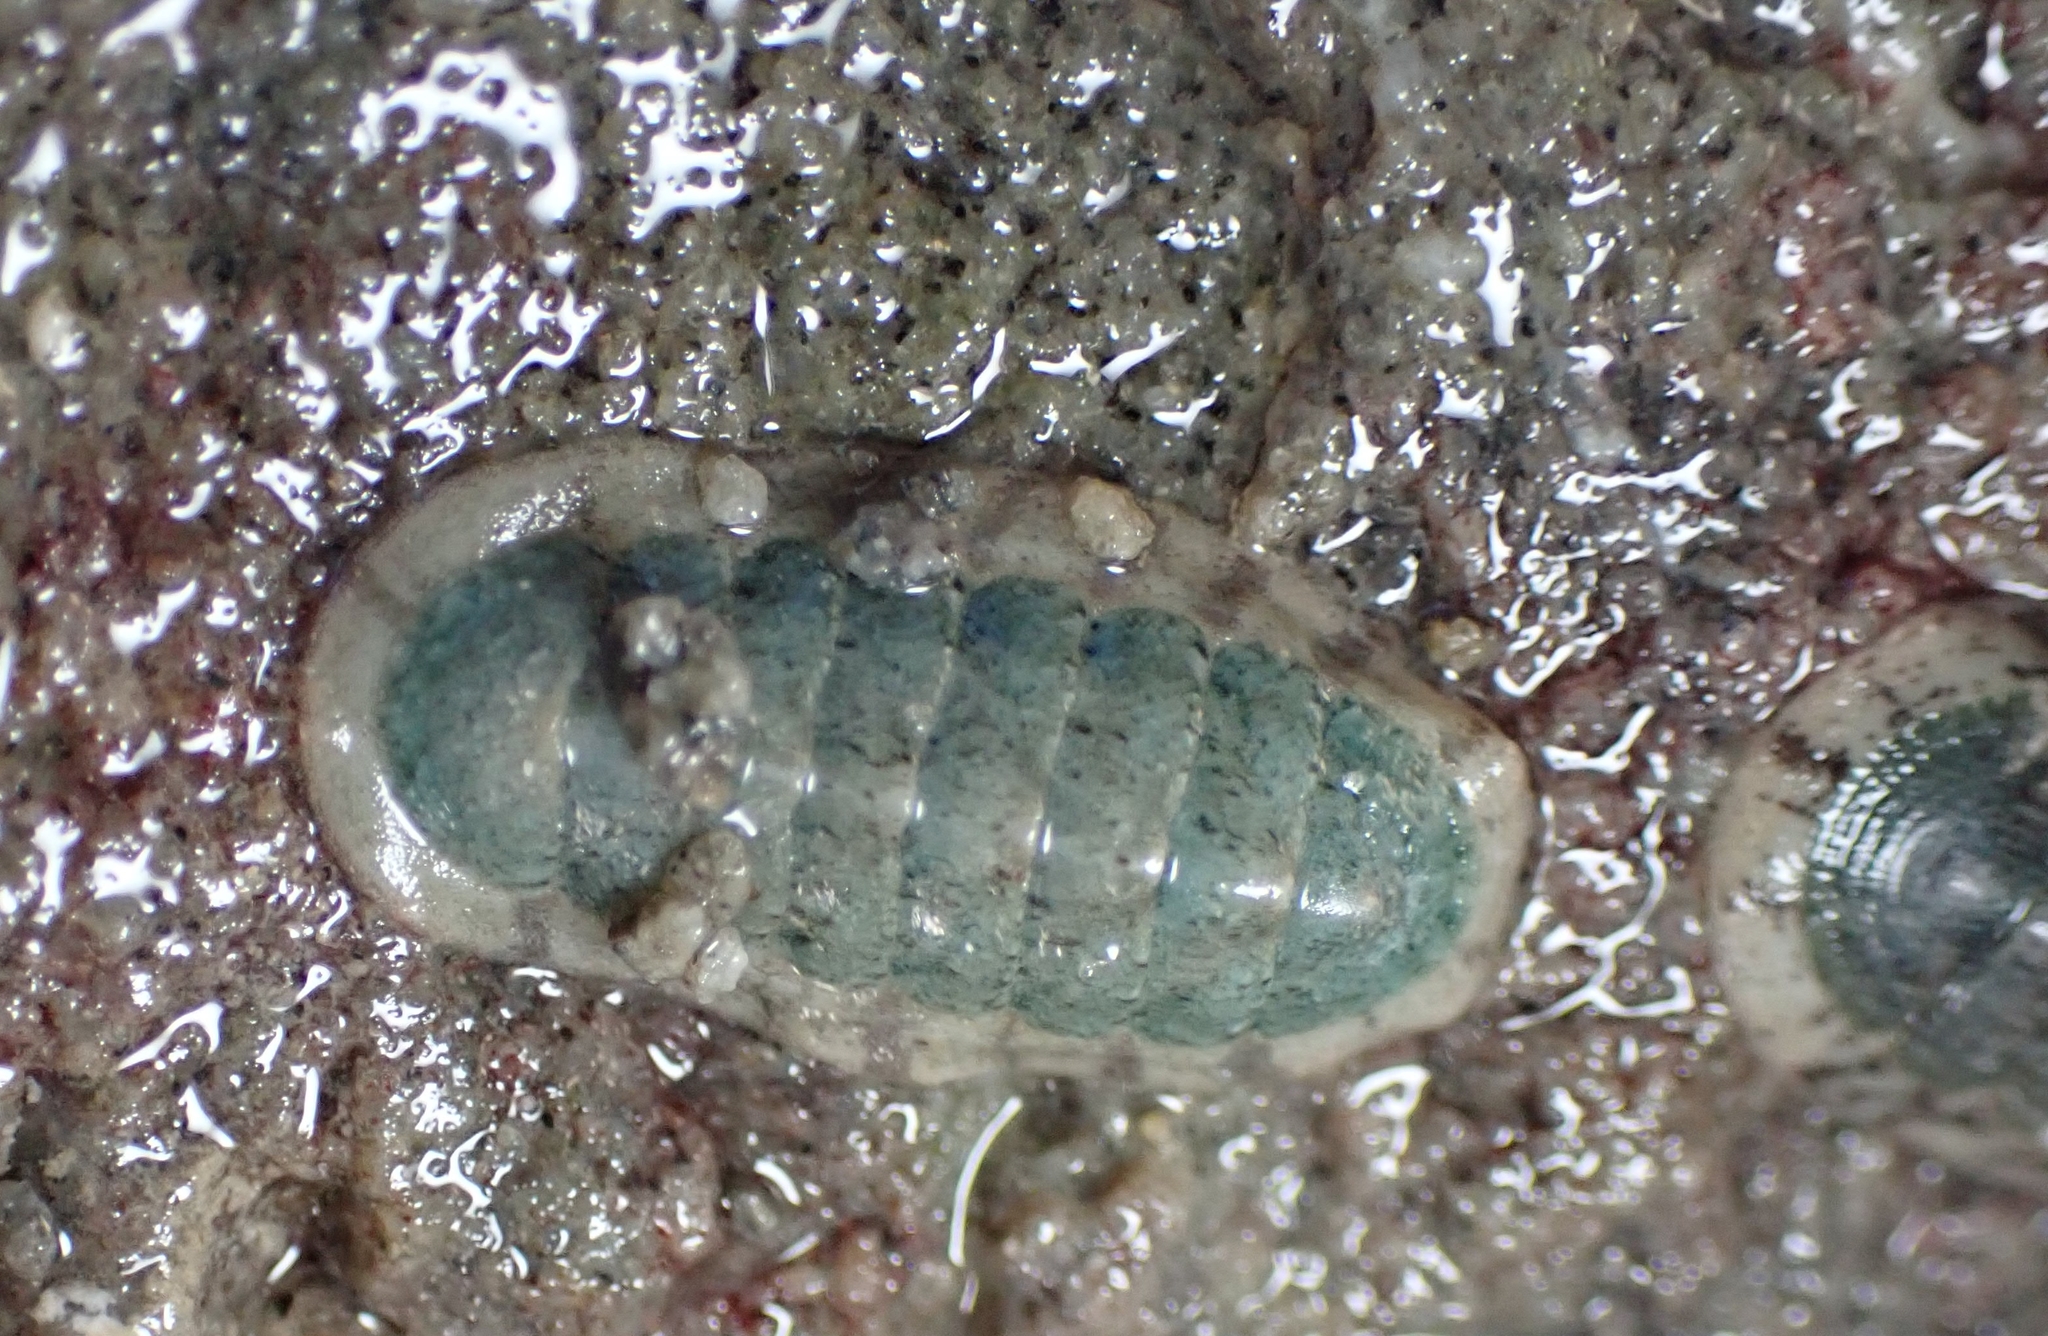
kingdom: Animalia
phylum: Mollusca
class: Polyplacophora
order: Chitonida
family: Ischnochitonidae
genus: Ischnochiton
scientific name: Ischnochiton maorianus
